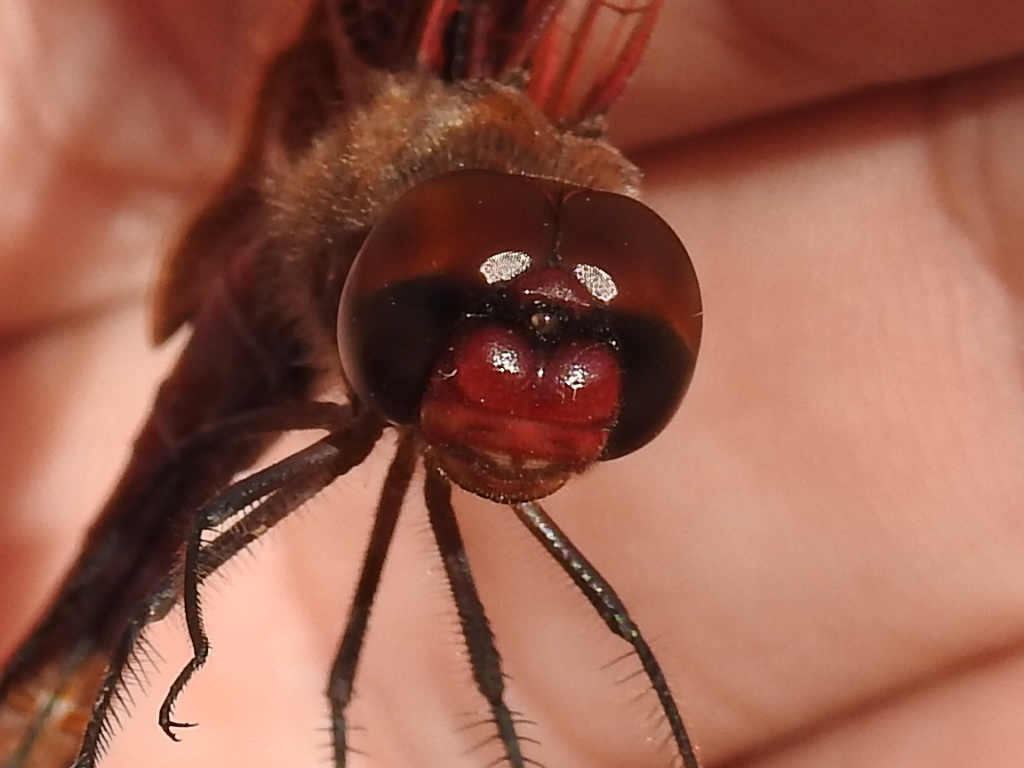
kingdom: Animalia
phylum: Arthropoda
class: Insecta
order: Odonata
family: Libellulidae
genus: Tramea
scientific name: Tramea onusta
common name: Red saddlebags
